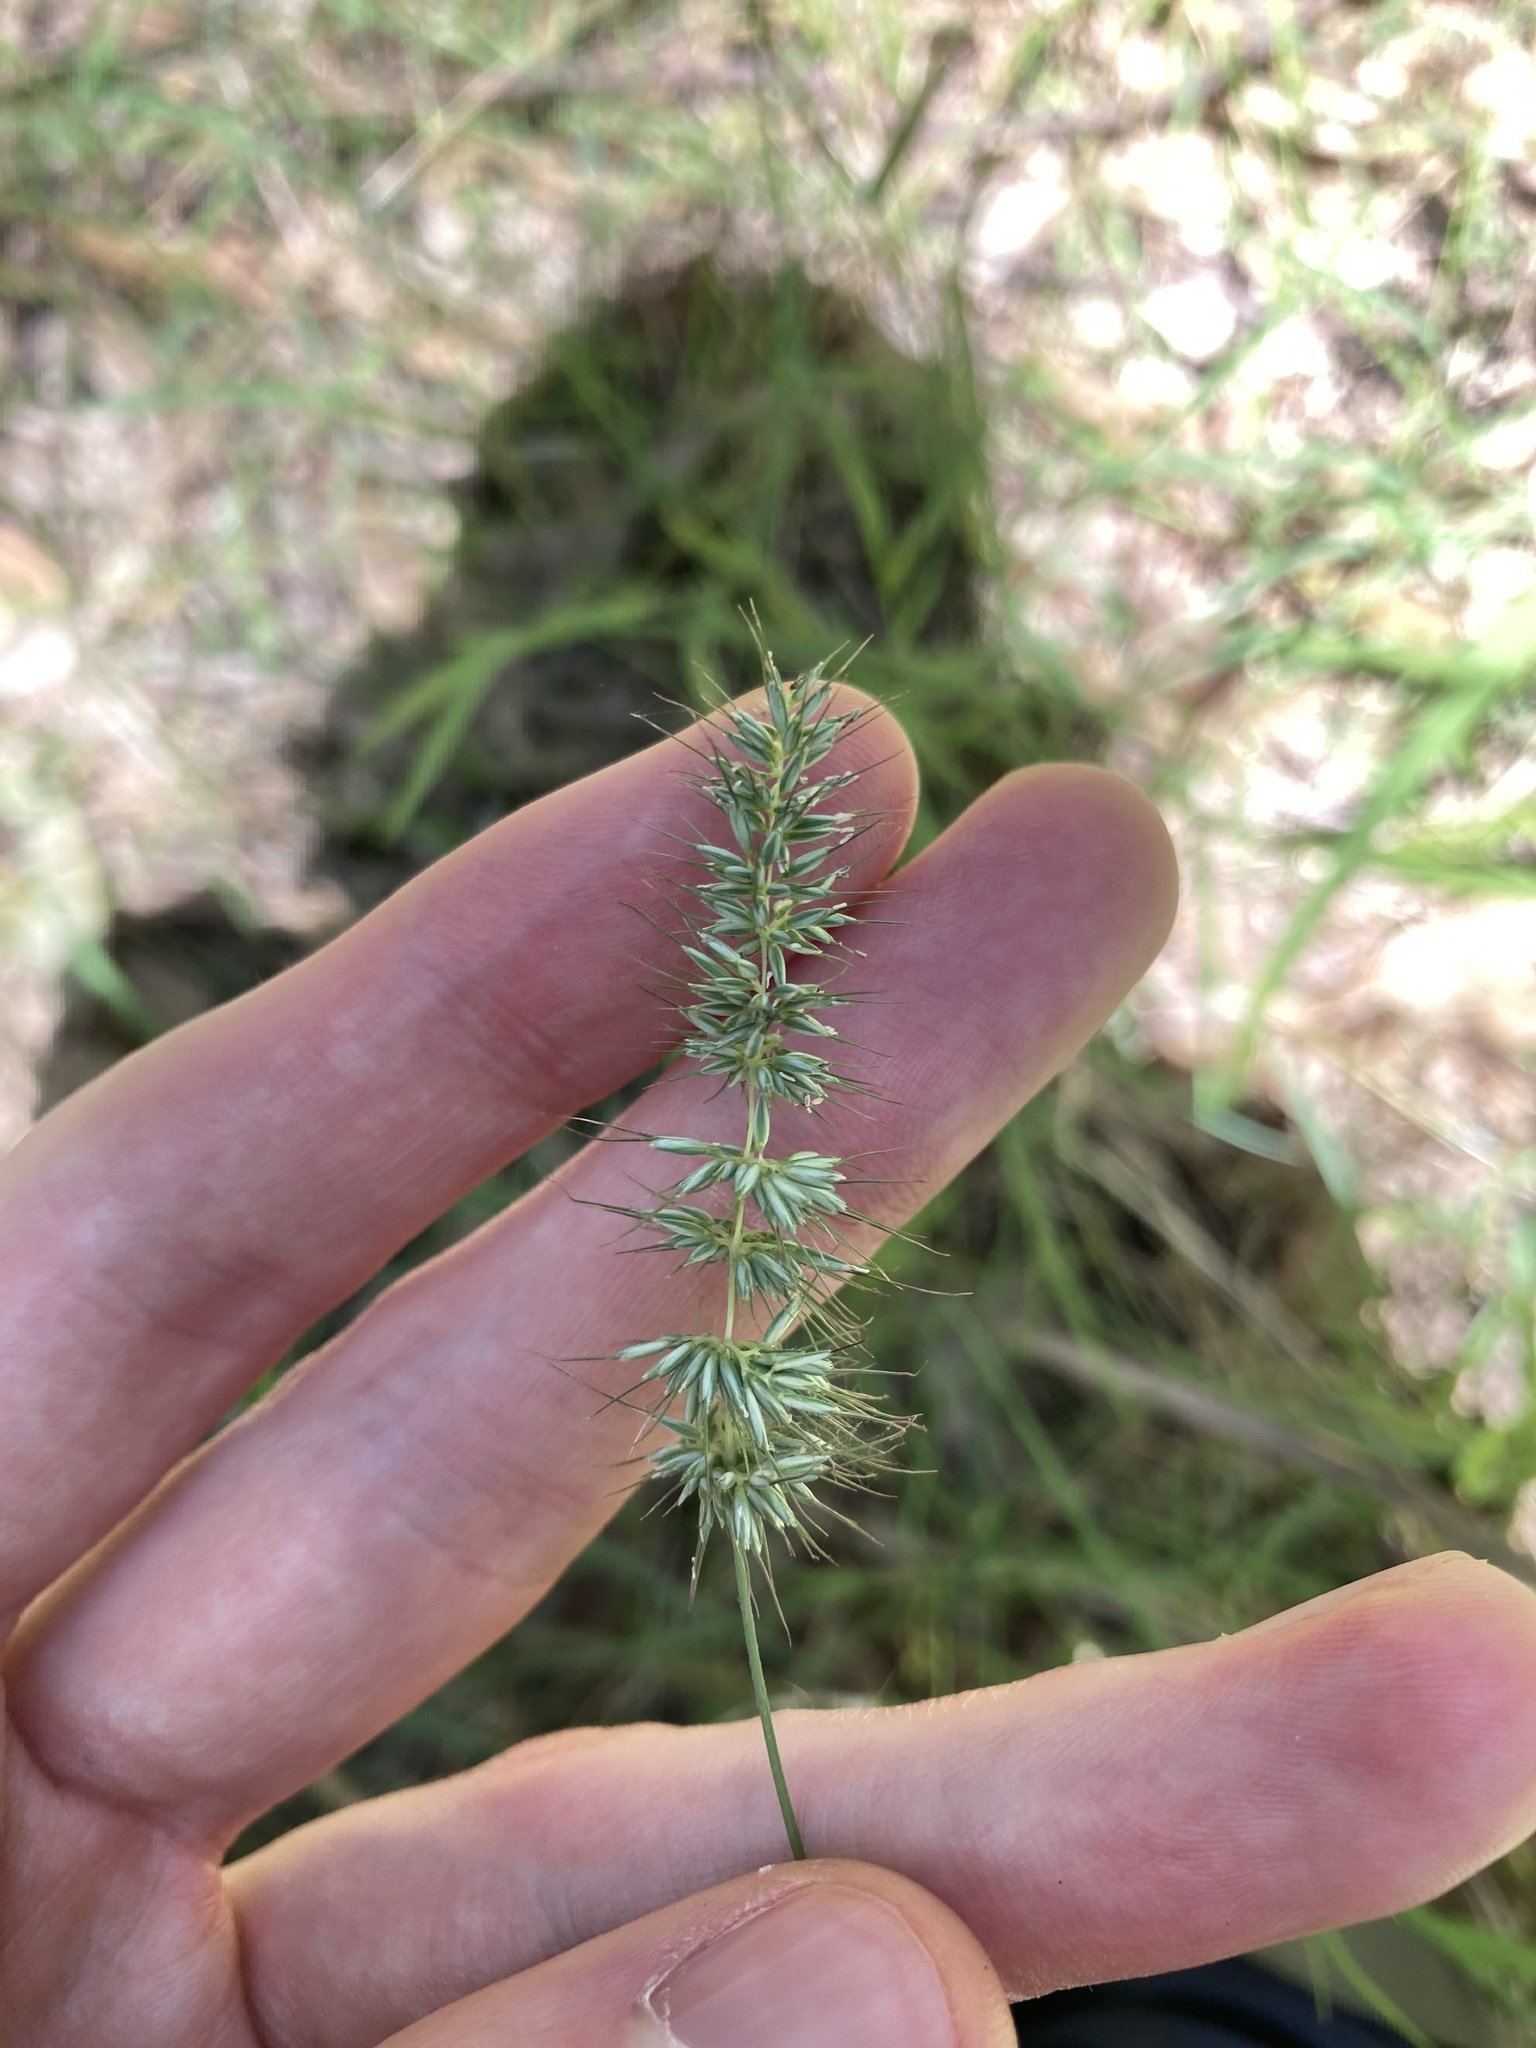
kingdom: Plantae
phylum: Tracheophyta
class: Liliopsida
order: Poales
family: Poaceae
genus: Echinopogon
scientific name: Echinopogon caespitosus
